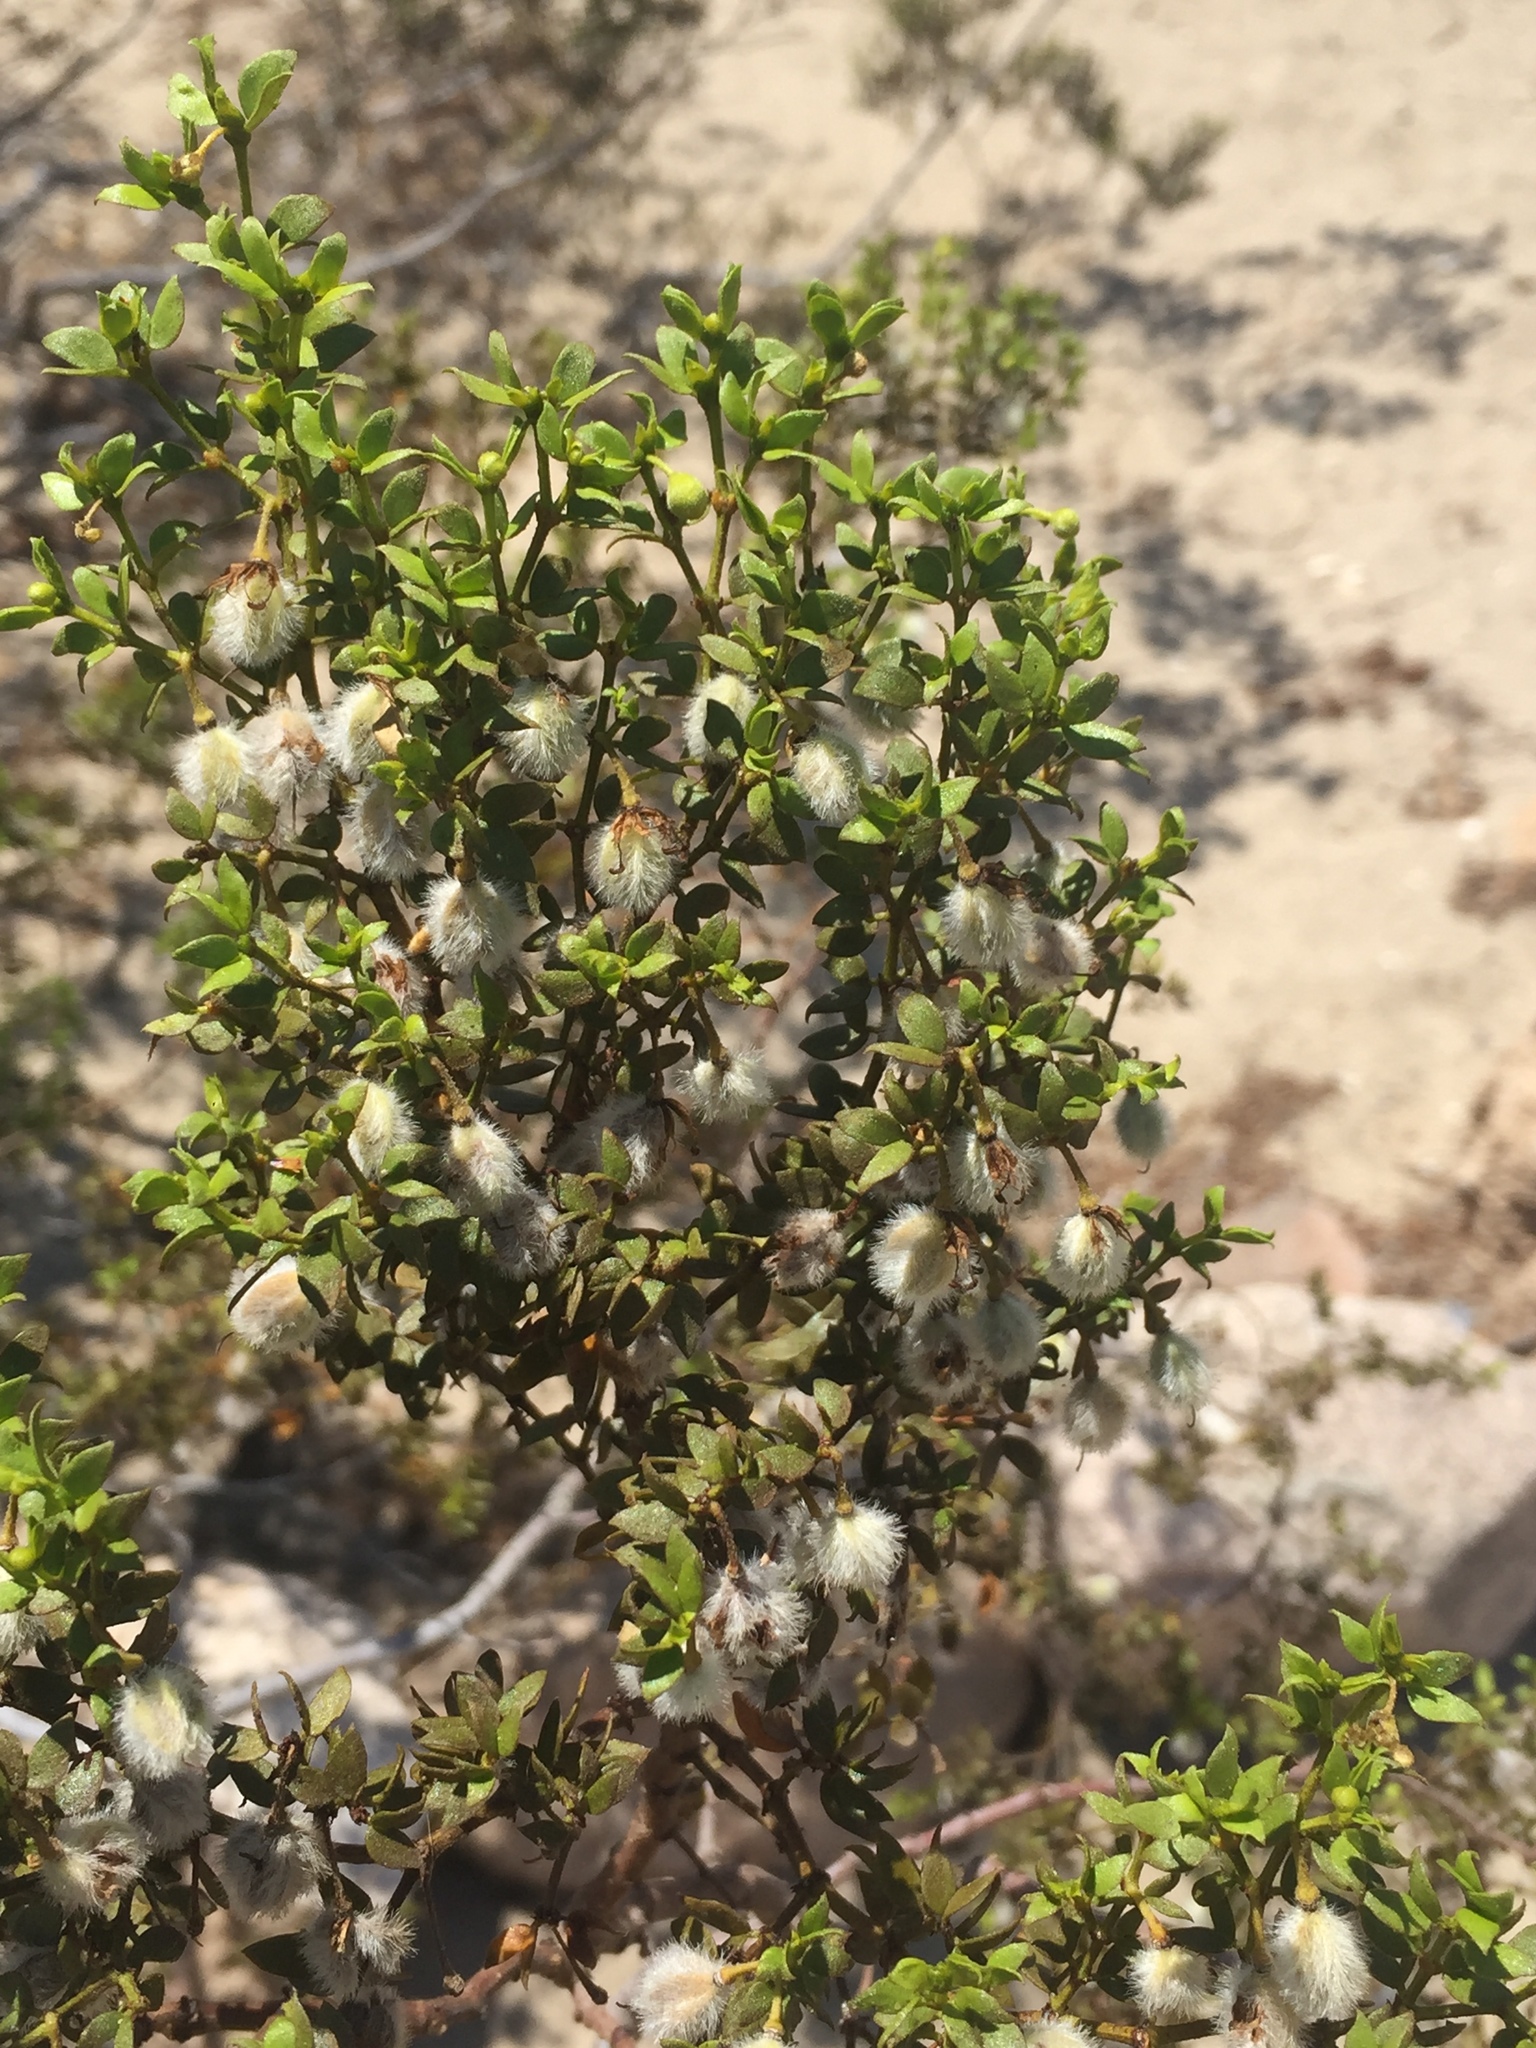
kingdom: Plantae
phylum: Tracheophyta
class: Magnoliopsida
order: Zygophyllales
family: Zygophyllaceae
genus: Larrea
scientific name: Larrea tridentata
